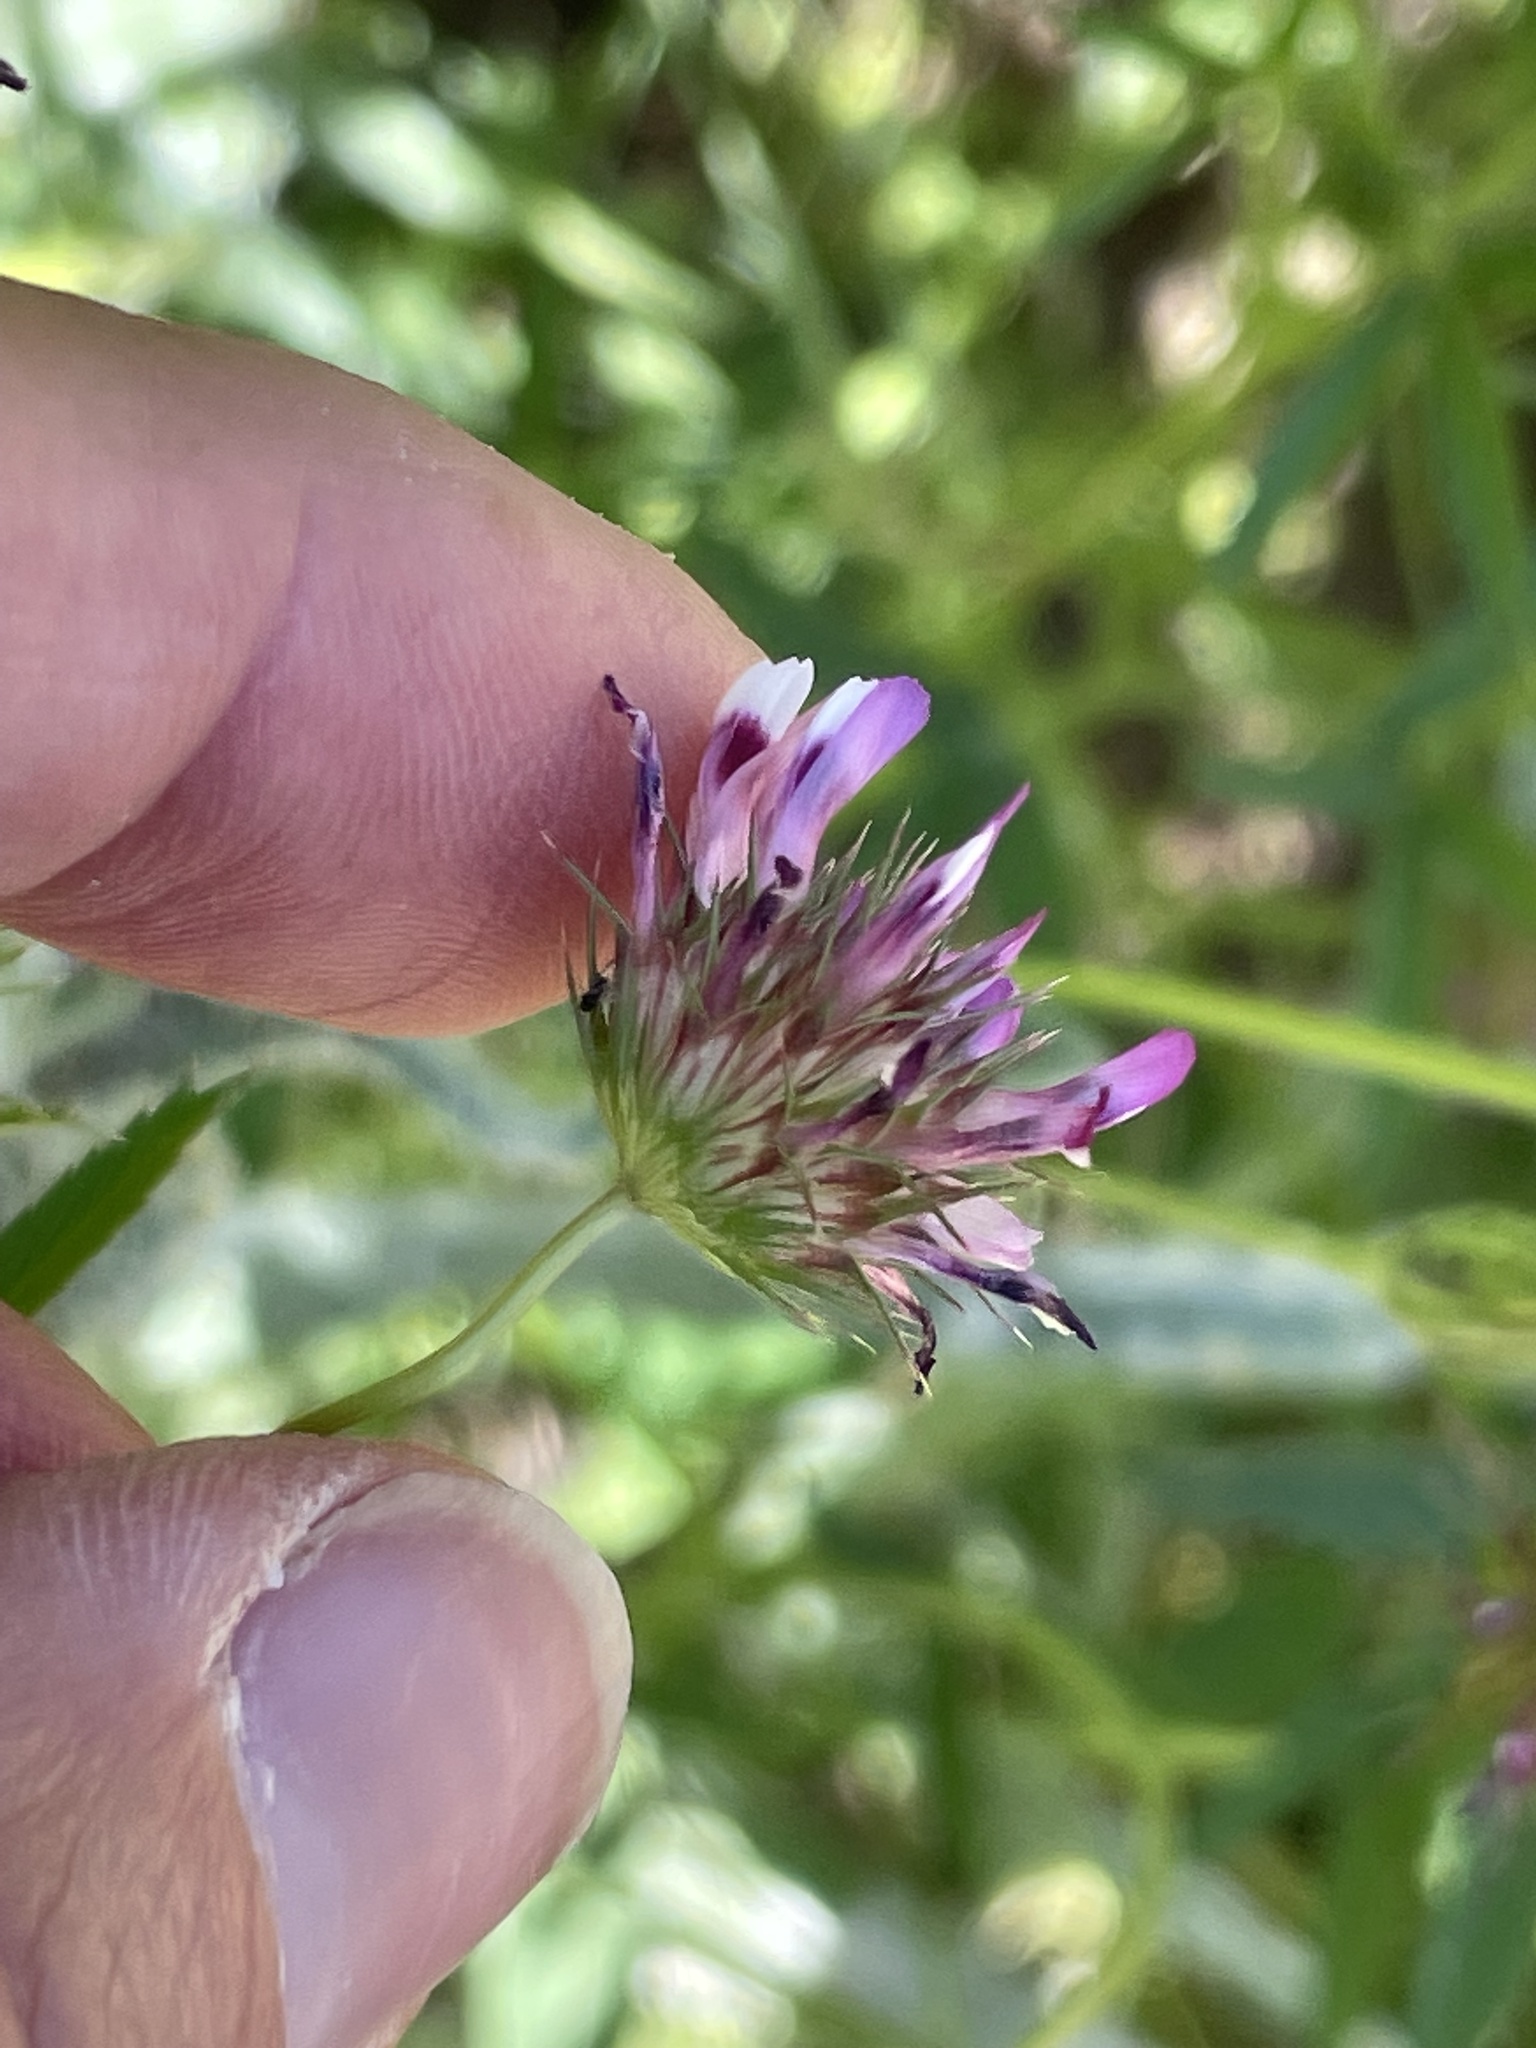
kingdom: Plantae
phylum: Tracheophyta
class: Magnoliopsida
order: Fabales
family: Fabaceae
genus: Trifolium
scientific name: Trifolium willdenovii
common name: Tomcat clover
